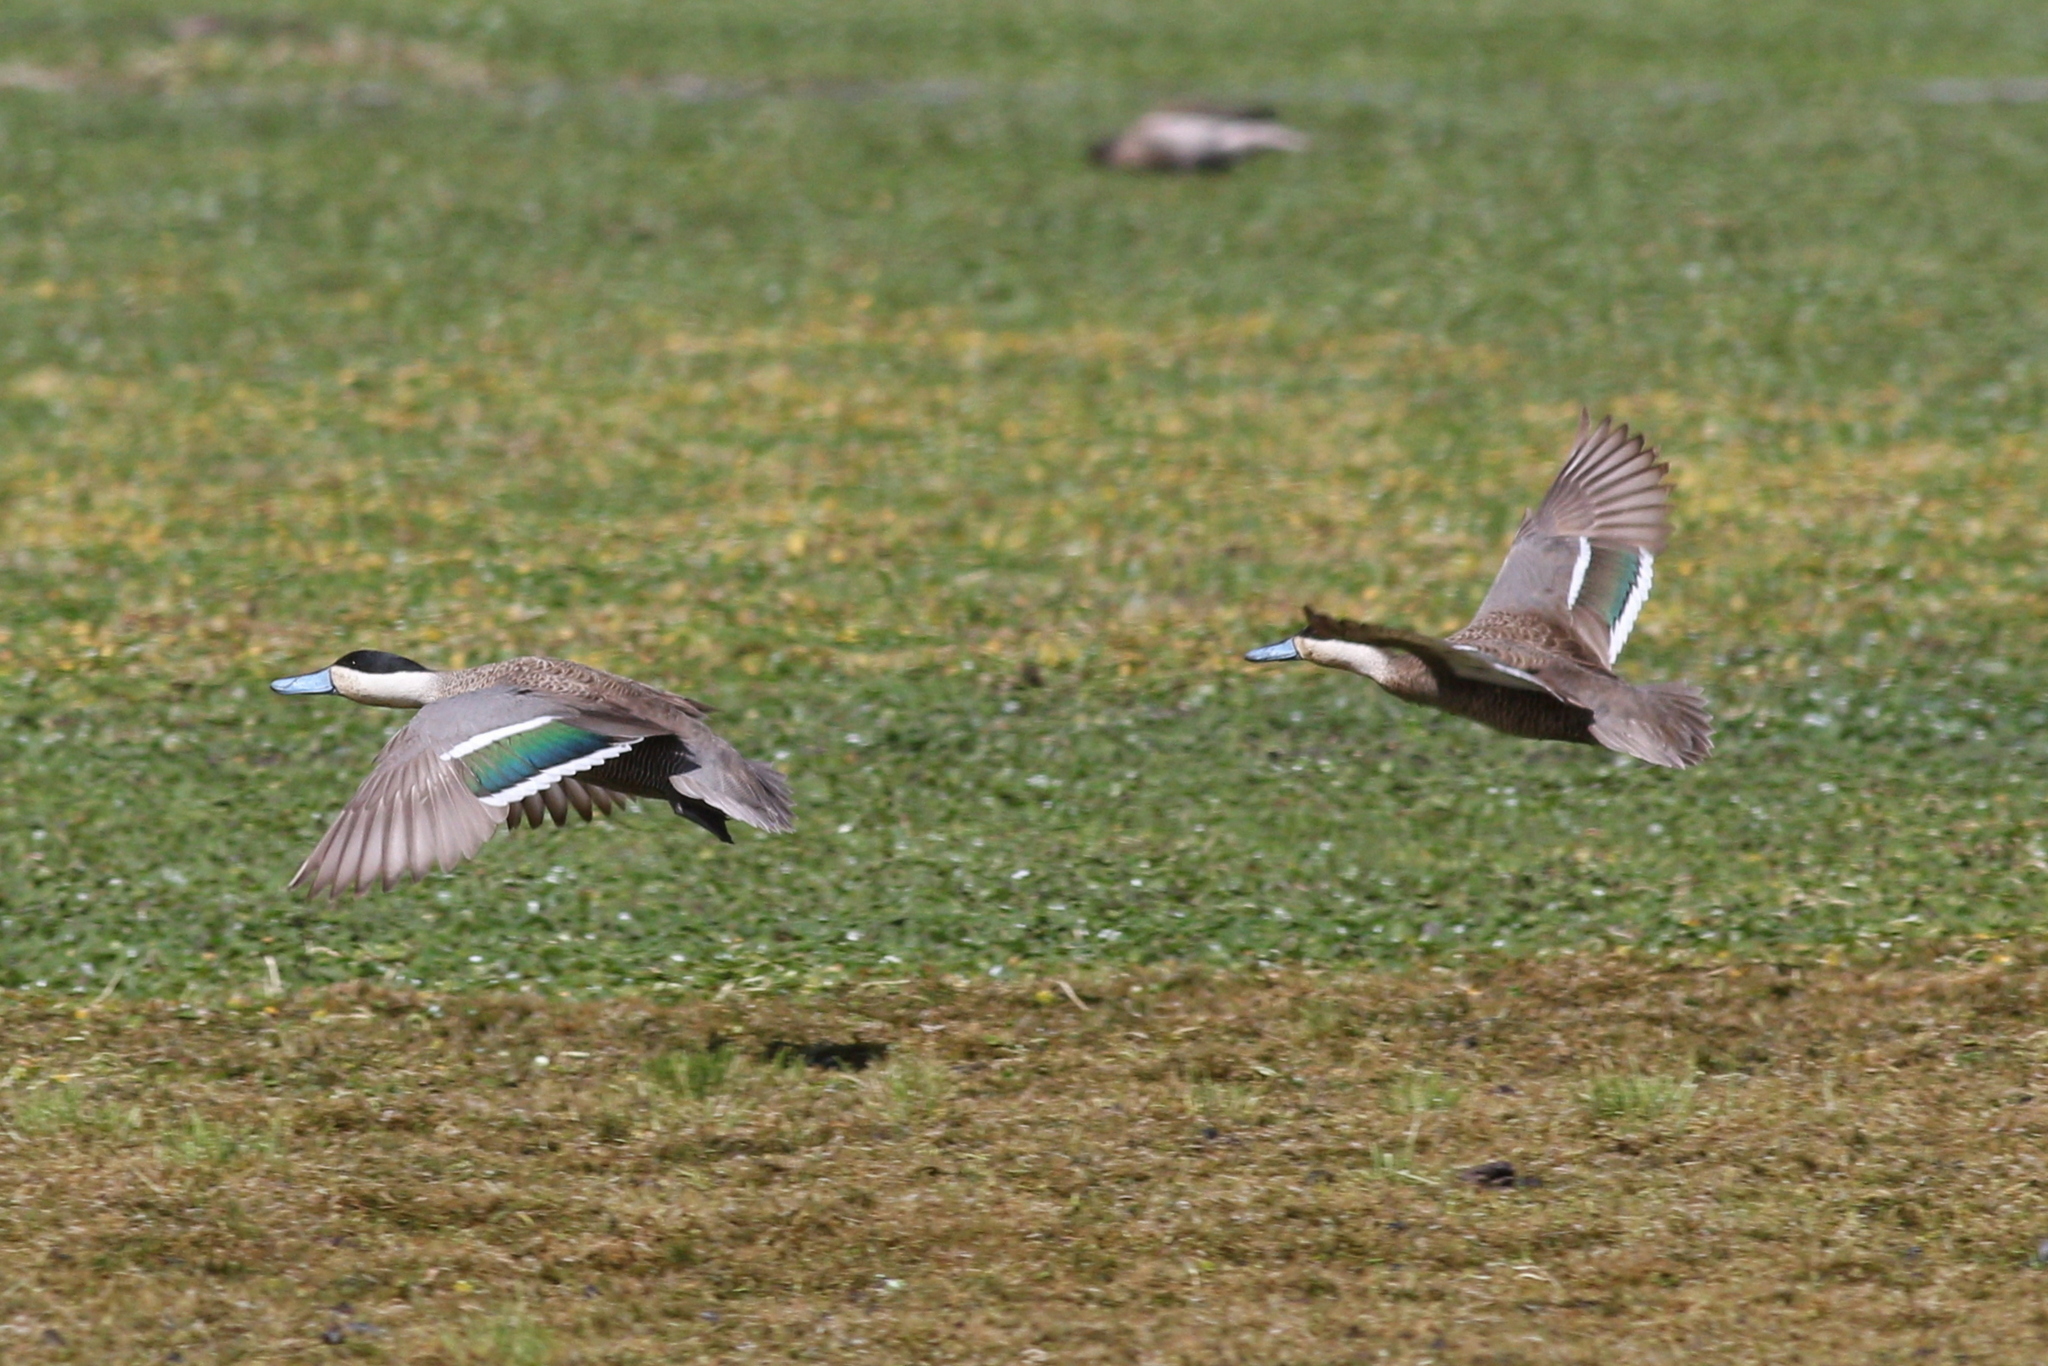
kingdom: Animalia
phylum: Chordata
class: Aves
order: Anseriformes
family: Anatidae
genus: Spatula
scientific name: Spatula puna
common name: Puna teal
